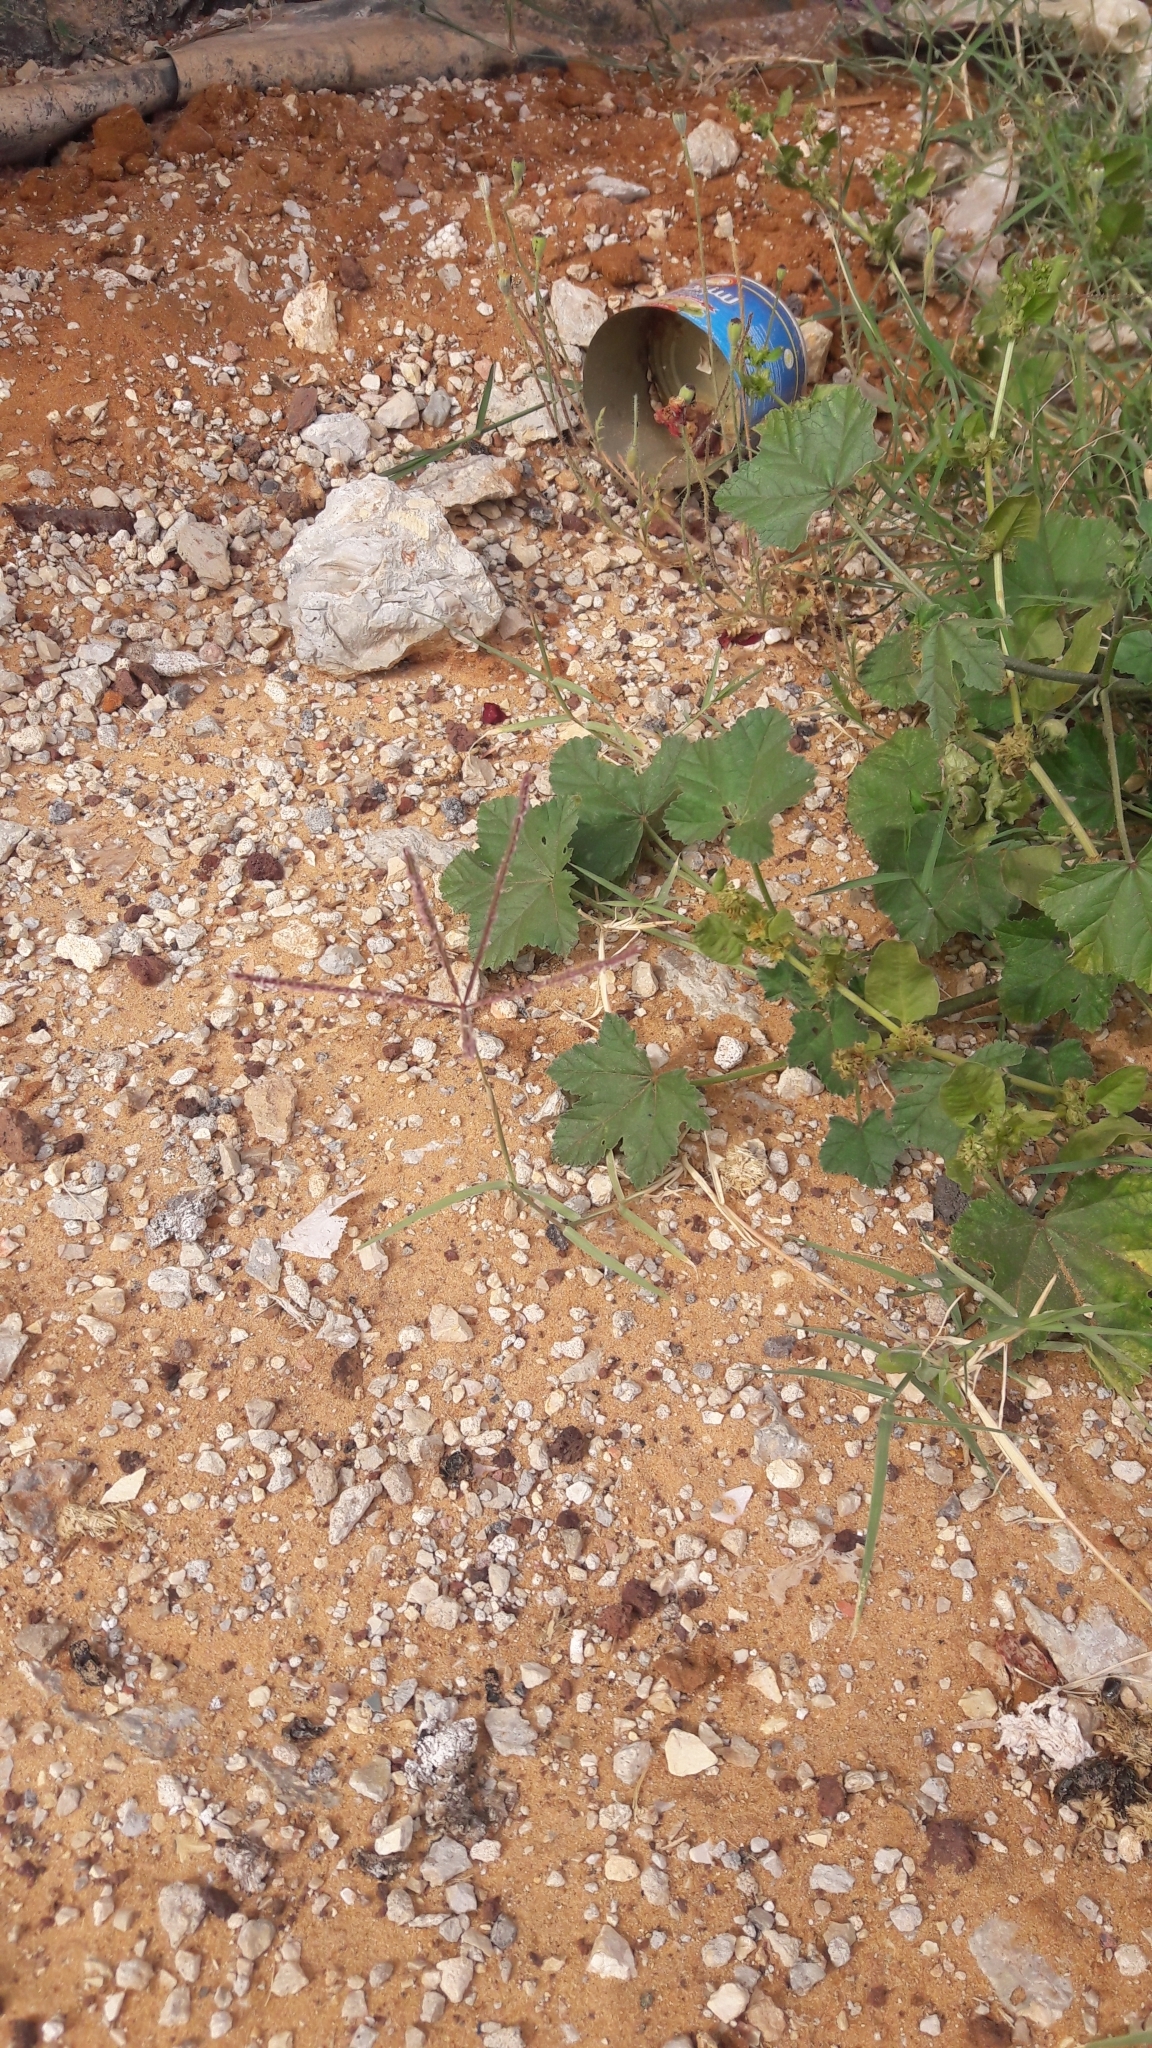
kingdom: Plantae
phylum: Tracheophyta
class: Liliopsida
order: Poales
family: Poaceae
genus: Cynodon
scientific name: Cynodon dactylon
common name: Bermuda grass
